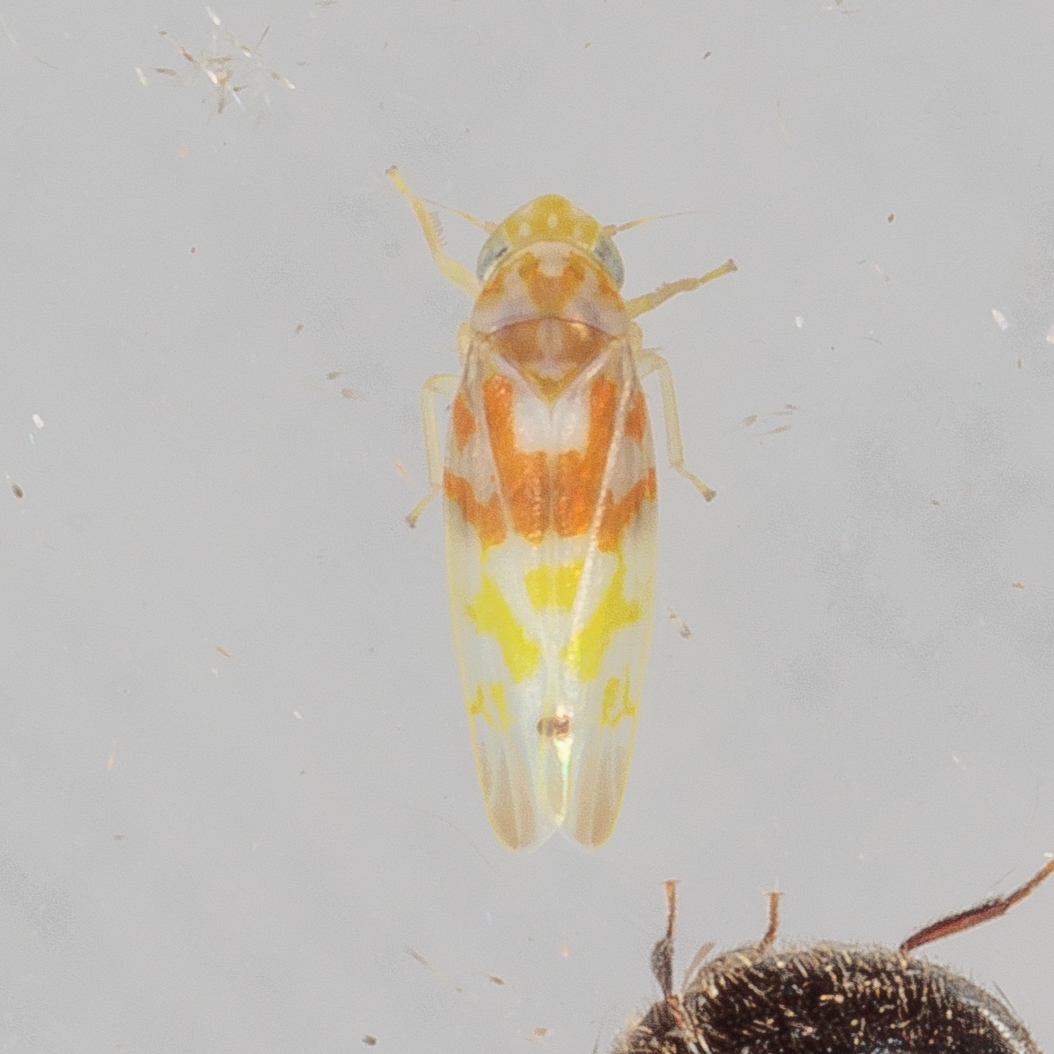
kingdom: Animalia
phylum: Arthropoda
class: Insecta
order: Hemiptera
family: Cicadellidae
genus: Eratoneura
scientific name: Eratoneura affinis
